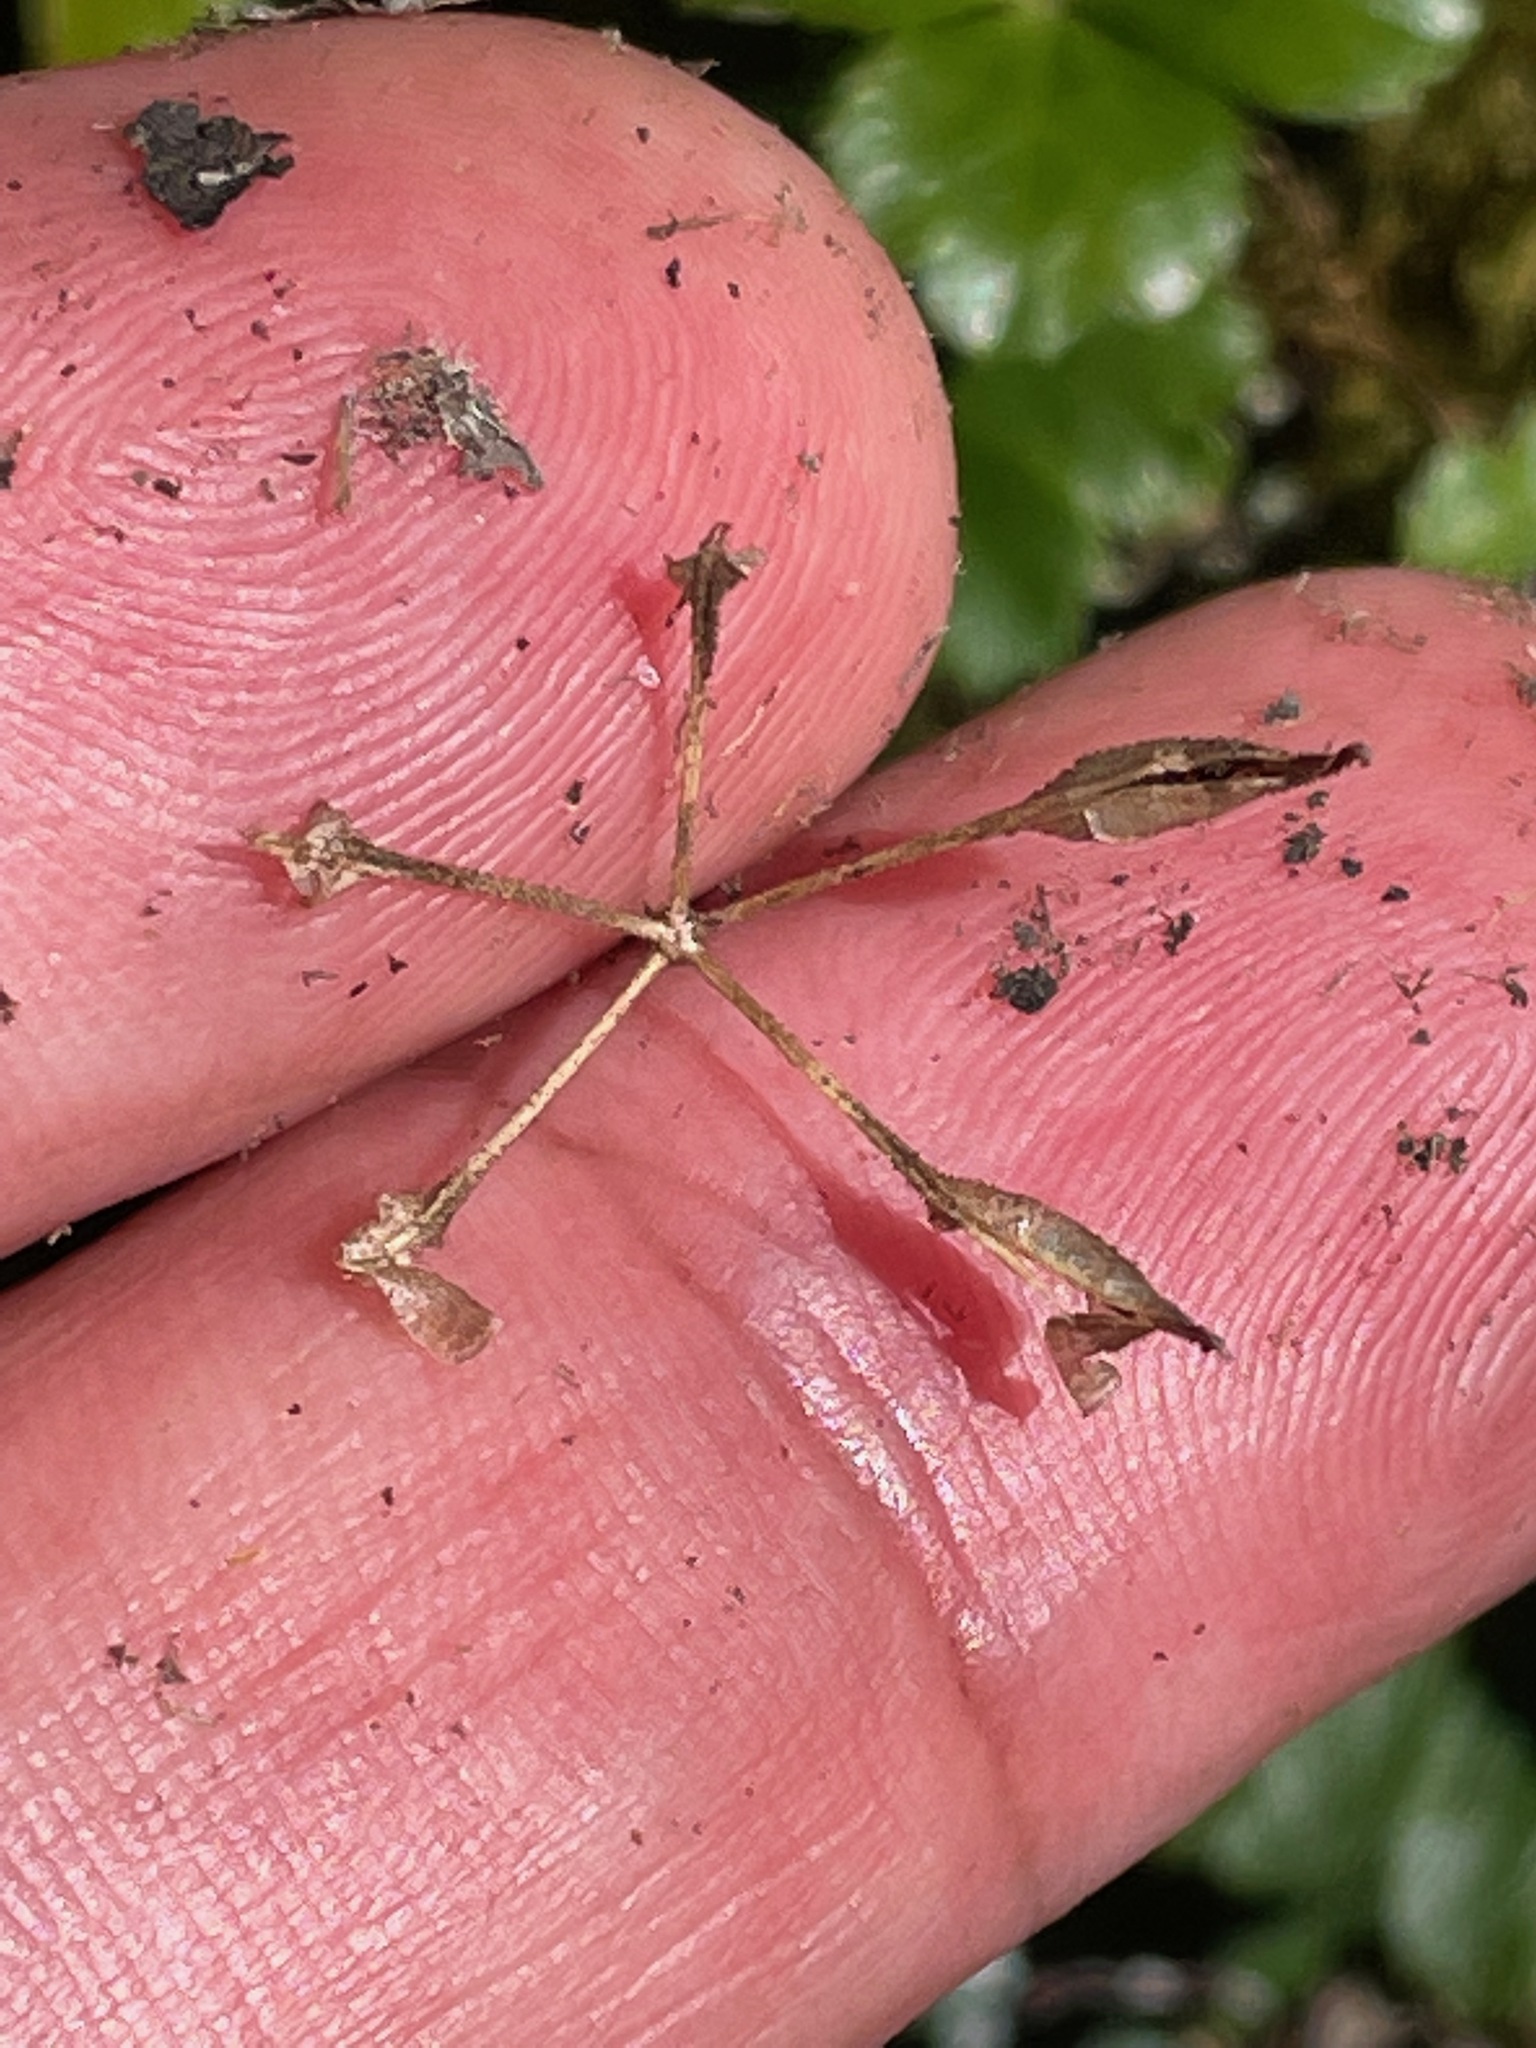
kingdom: Plantae
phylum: Tracheophyta
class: Magnoliopsida
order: Ranunculales
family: Ranunculaceae
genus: Coptis
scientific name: Coptis trifolia
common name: Canker-root
